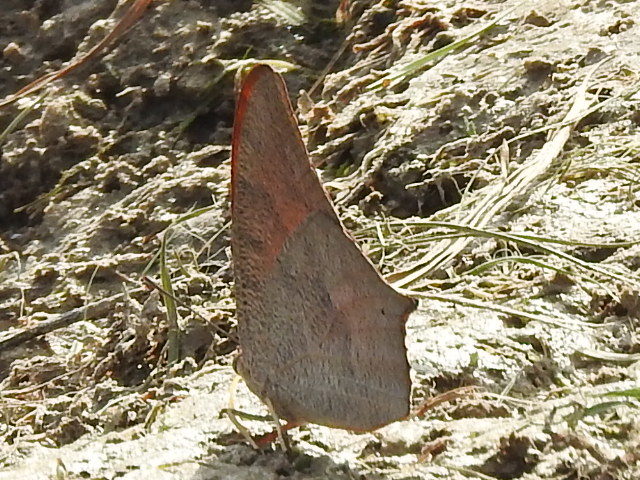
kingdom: Animalia
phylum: Arthropoda
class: Insecta
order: Lepidoptera
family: Nymphalidae
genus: Anaea
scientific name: Anaea andria
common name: Goatweed leafwing
